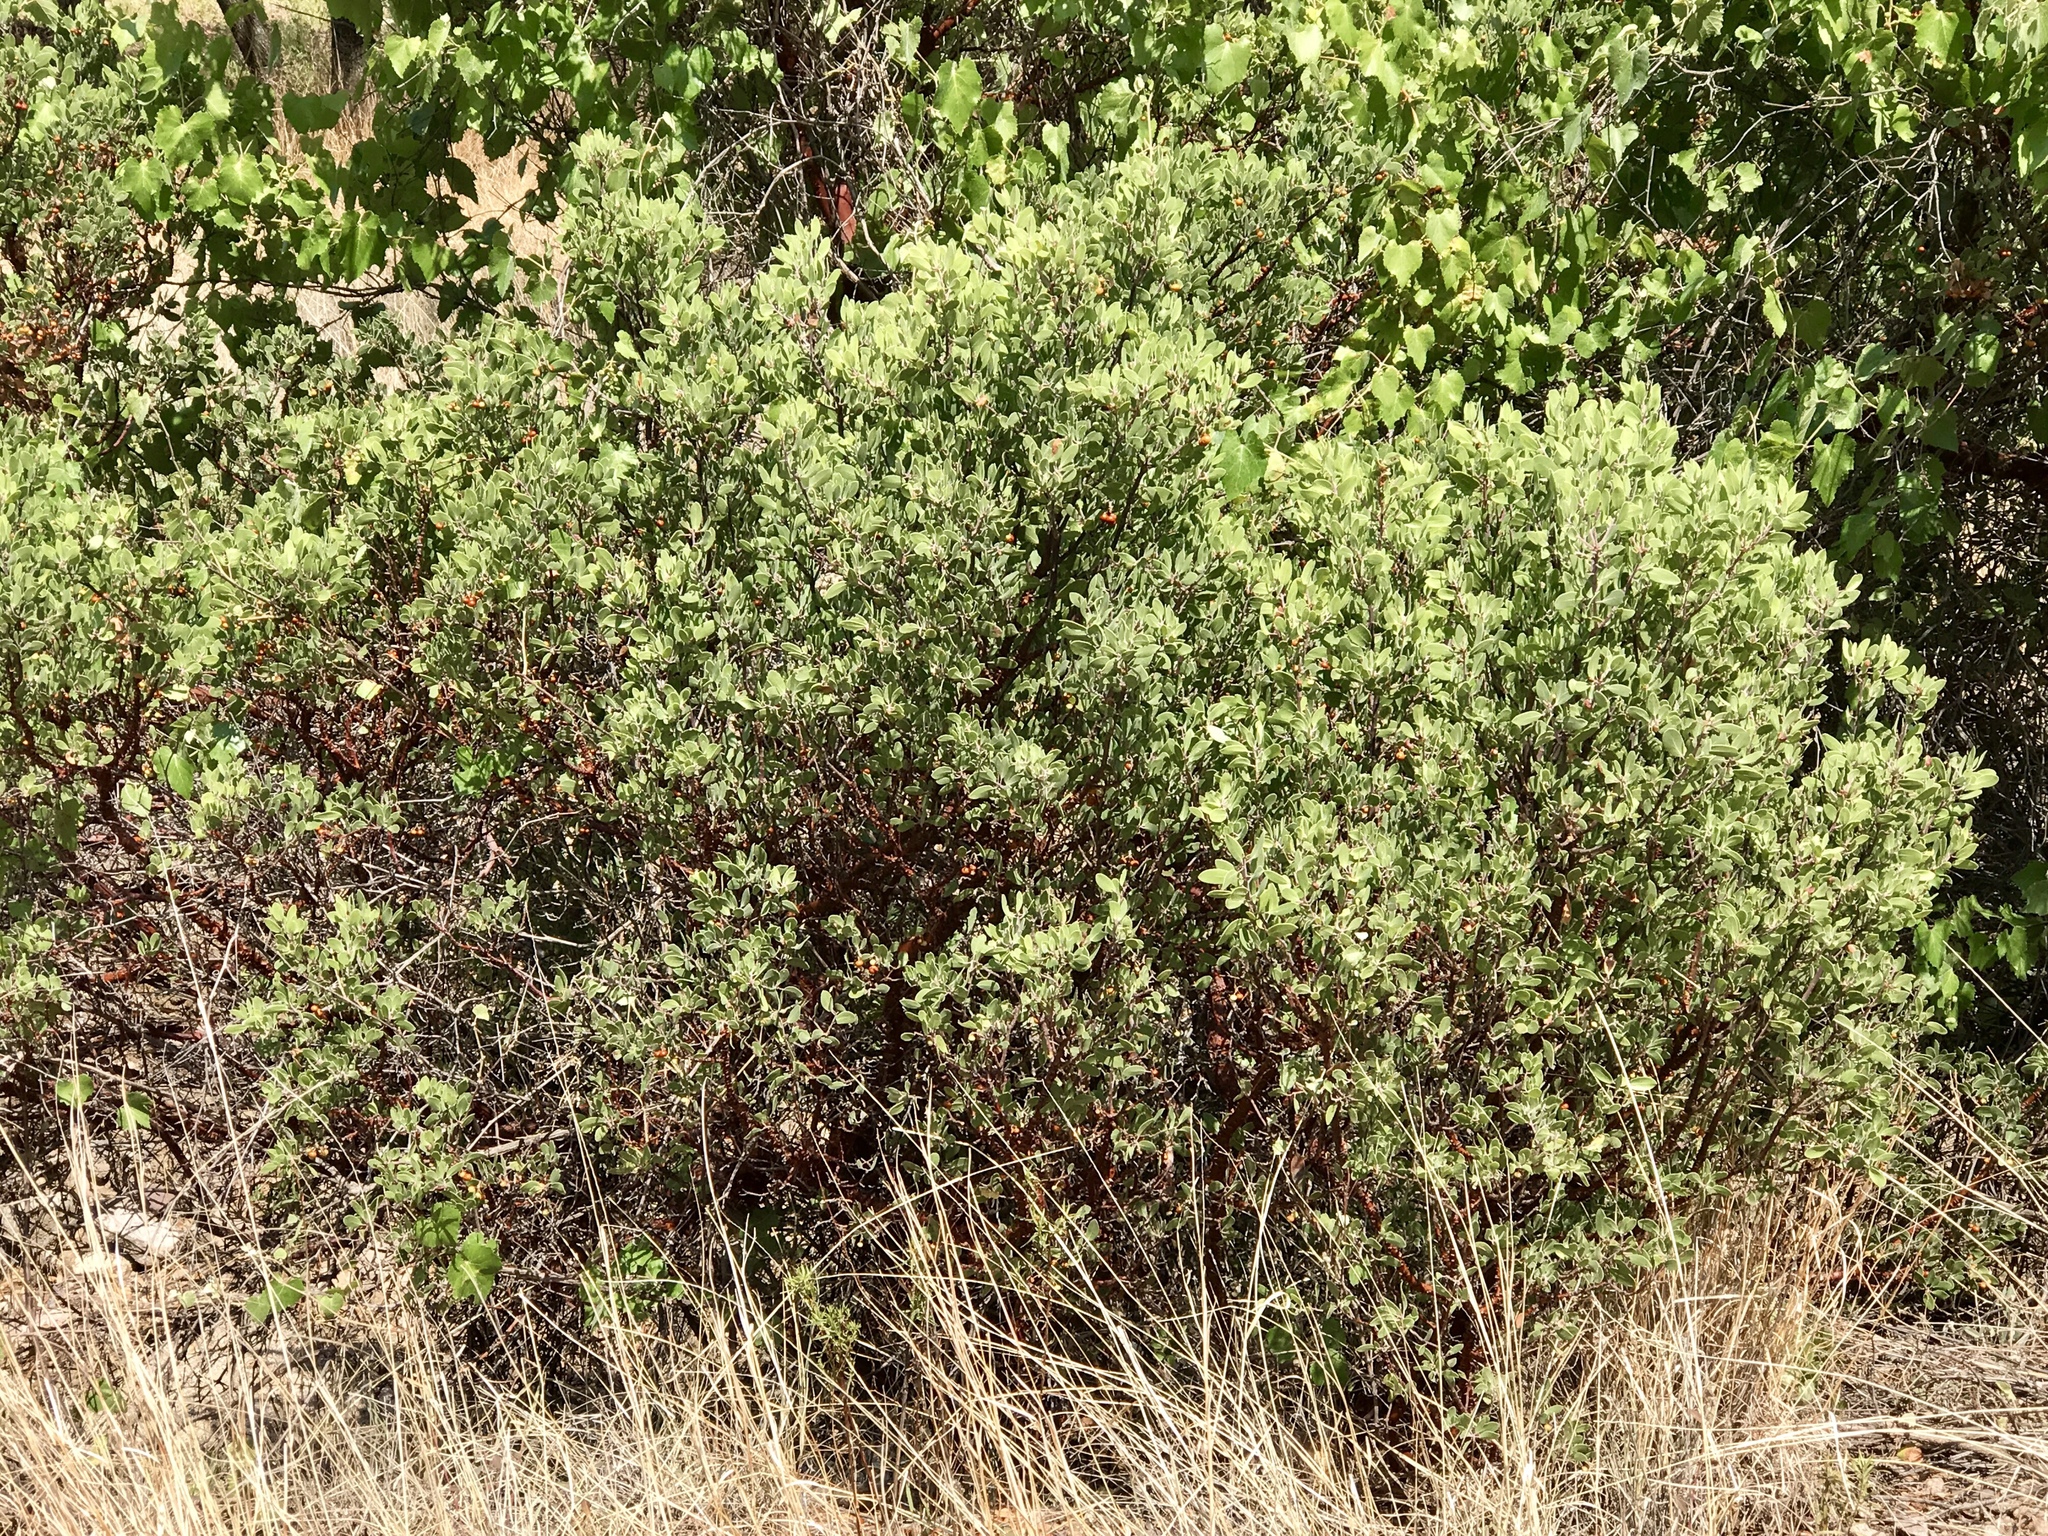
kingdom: Plantae
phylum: Tracheophyta
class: Magnoliopsida
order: Ericales
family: Ericaceae
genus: Arctostaphylos
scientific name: Arctostaphylos pungens
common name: Mexican manzanita
